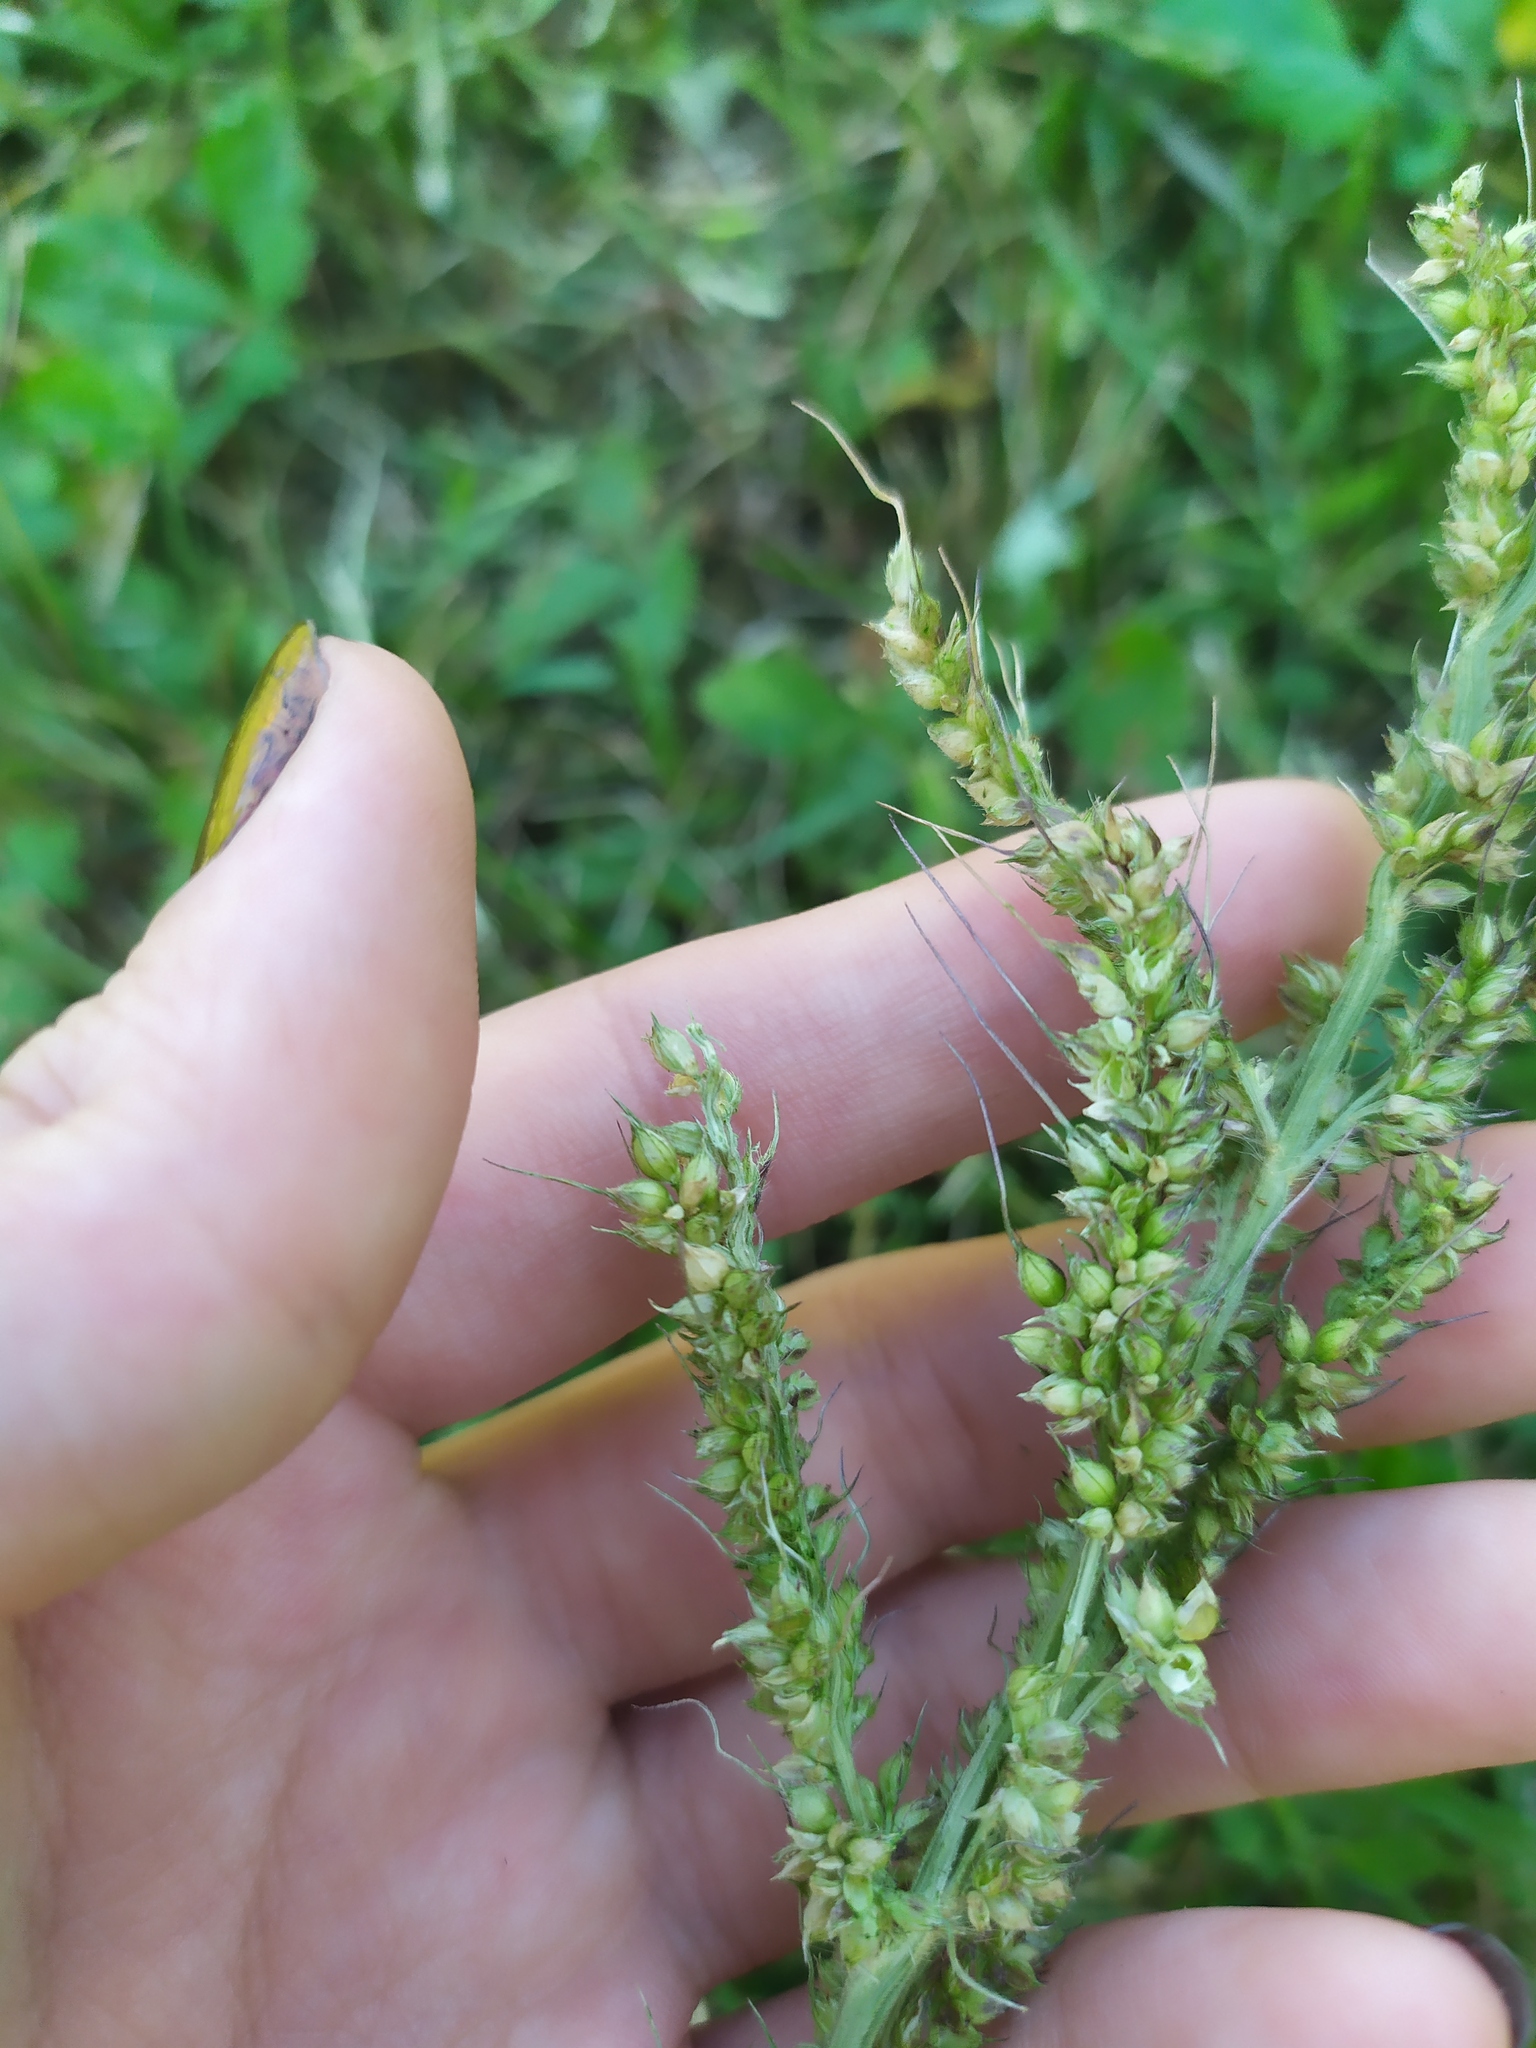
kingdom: Plantae
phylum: Tracheophyta
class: Liliopsida
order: Poales
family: Poaceae
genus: Echinochloa
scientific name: Echinochloa crus-galli
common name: Cockspur
